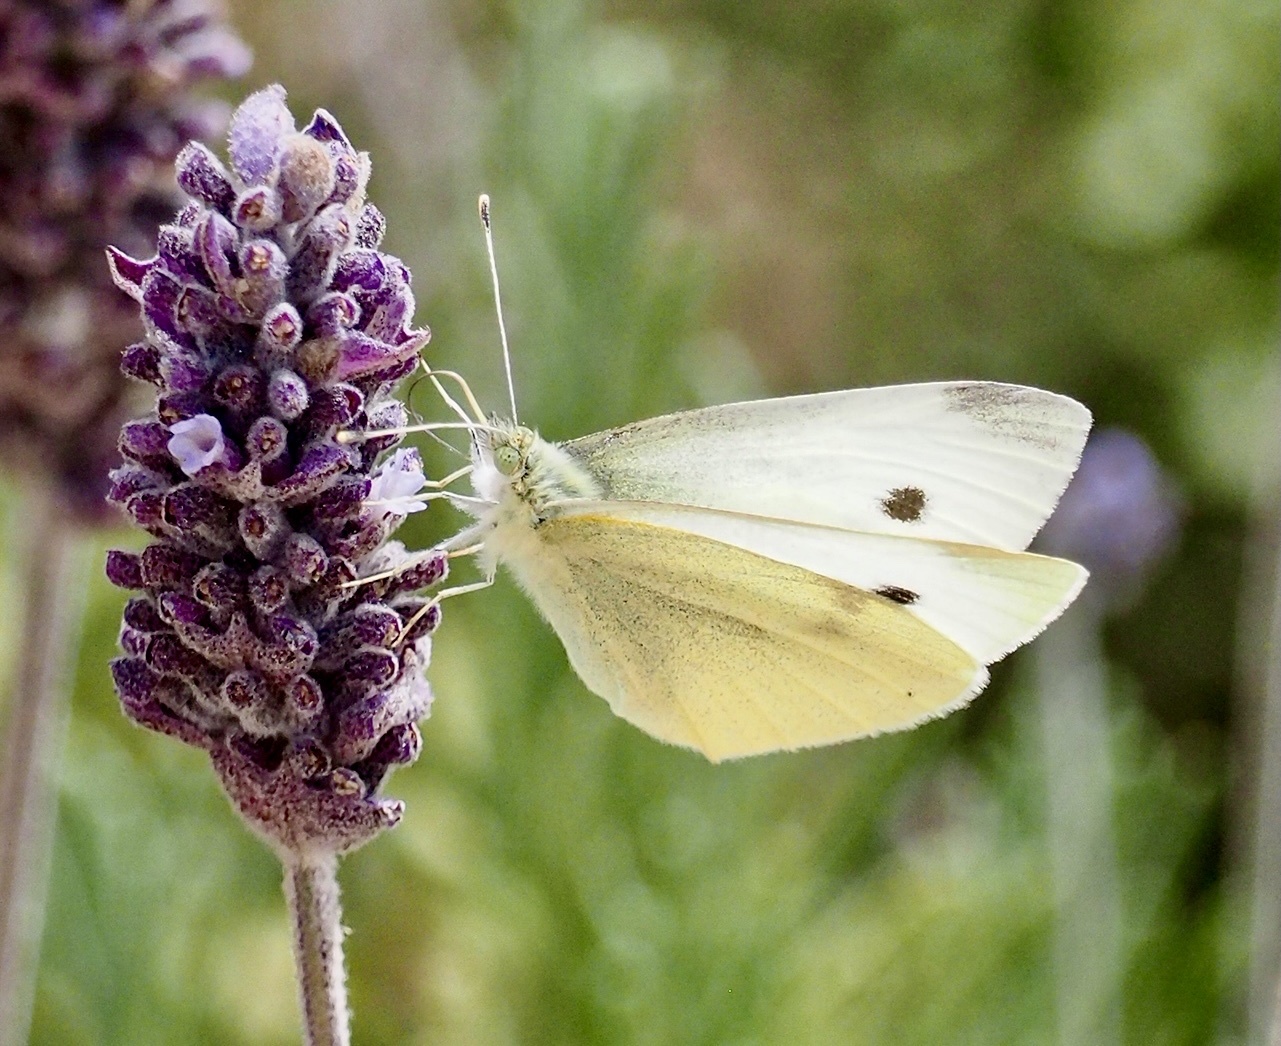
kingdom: Animalia
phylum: Arthropoda
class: Insecta
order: Lepidoptera
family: Pieridae
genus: Pieris
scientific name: Pieris rapae
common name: Small white
